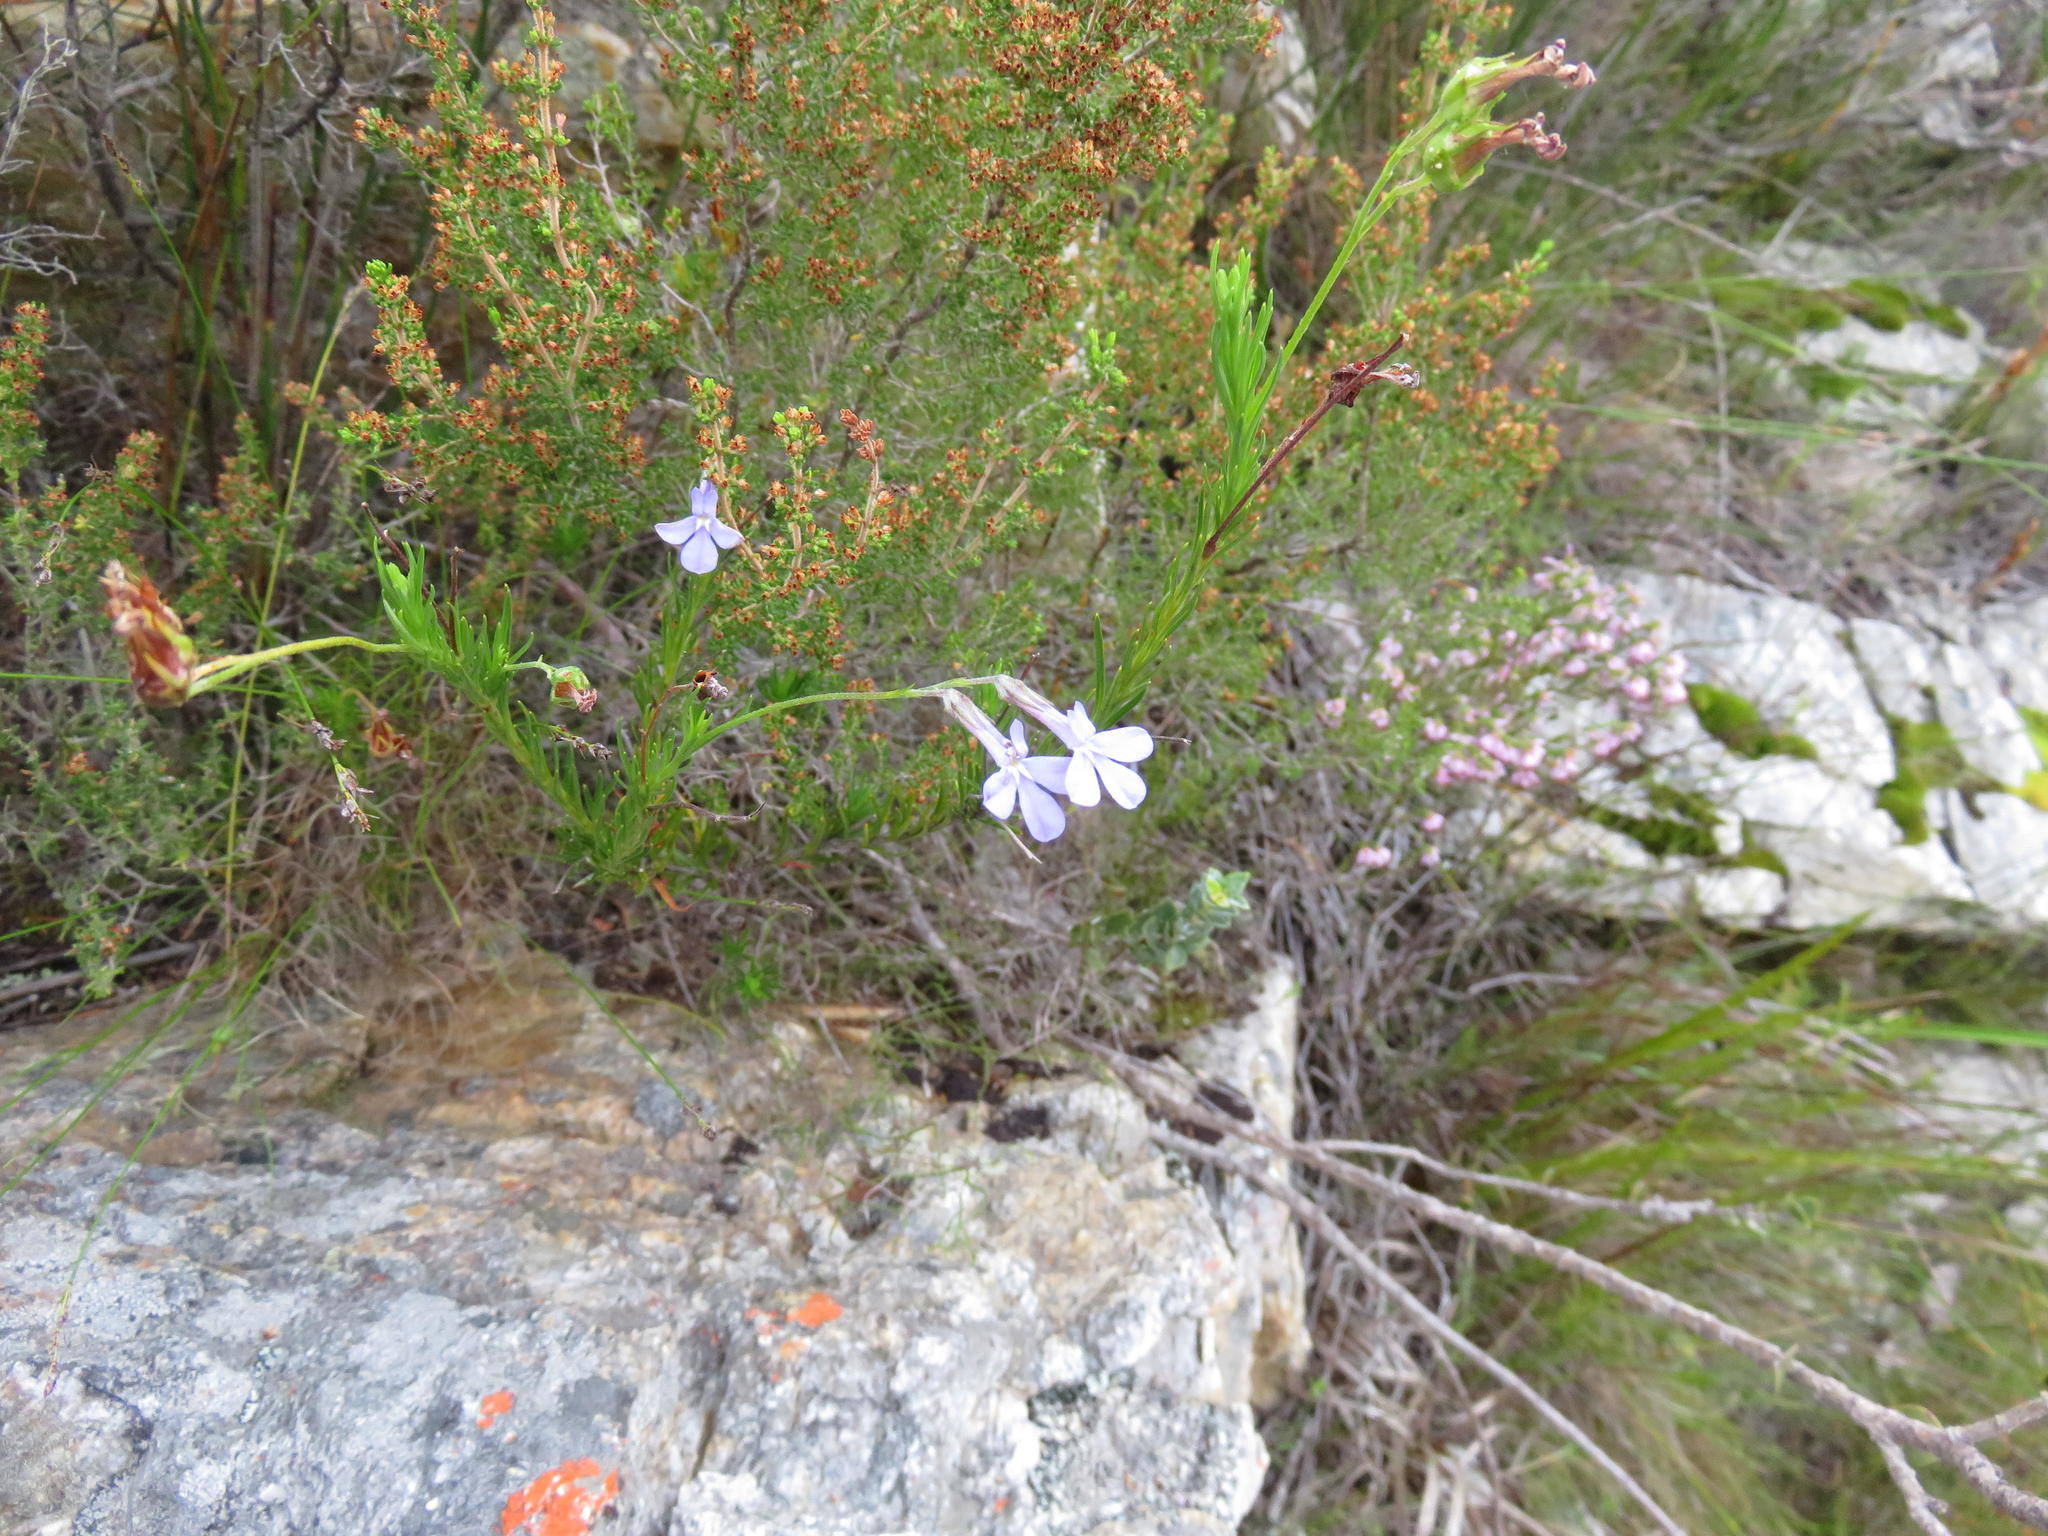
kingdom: Plantae
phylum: Tracheophyta
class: Magnoliopsida
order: Asterales
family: Campanulaceae
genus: Lobelia
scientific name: Lobelia pinifolia
